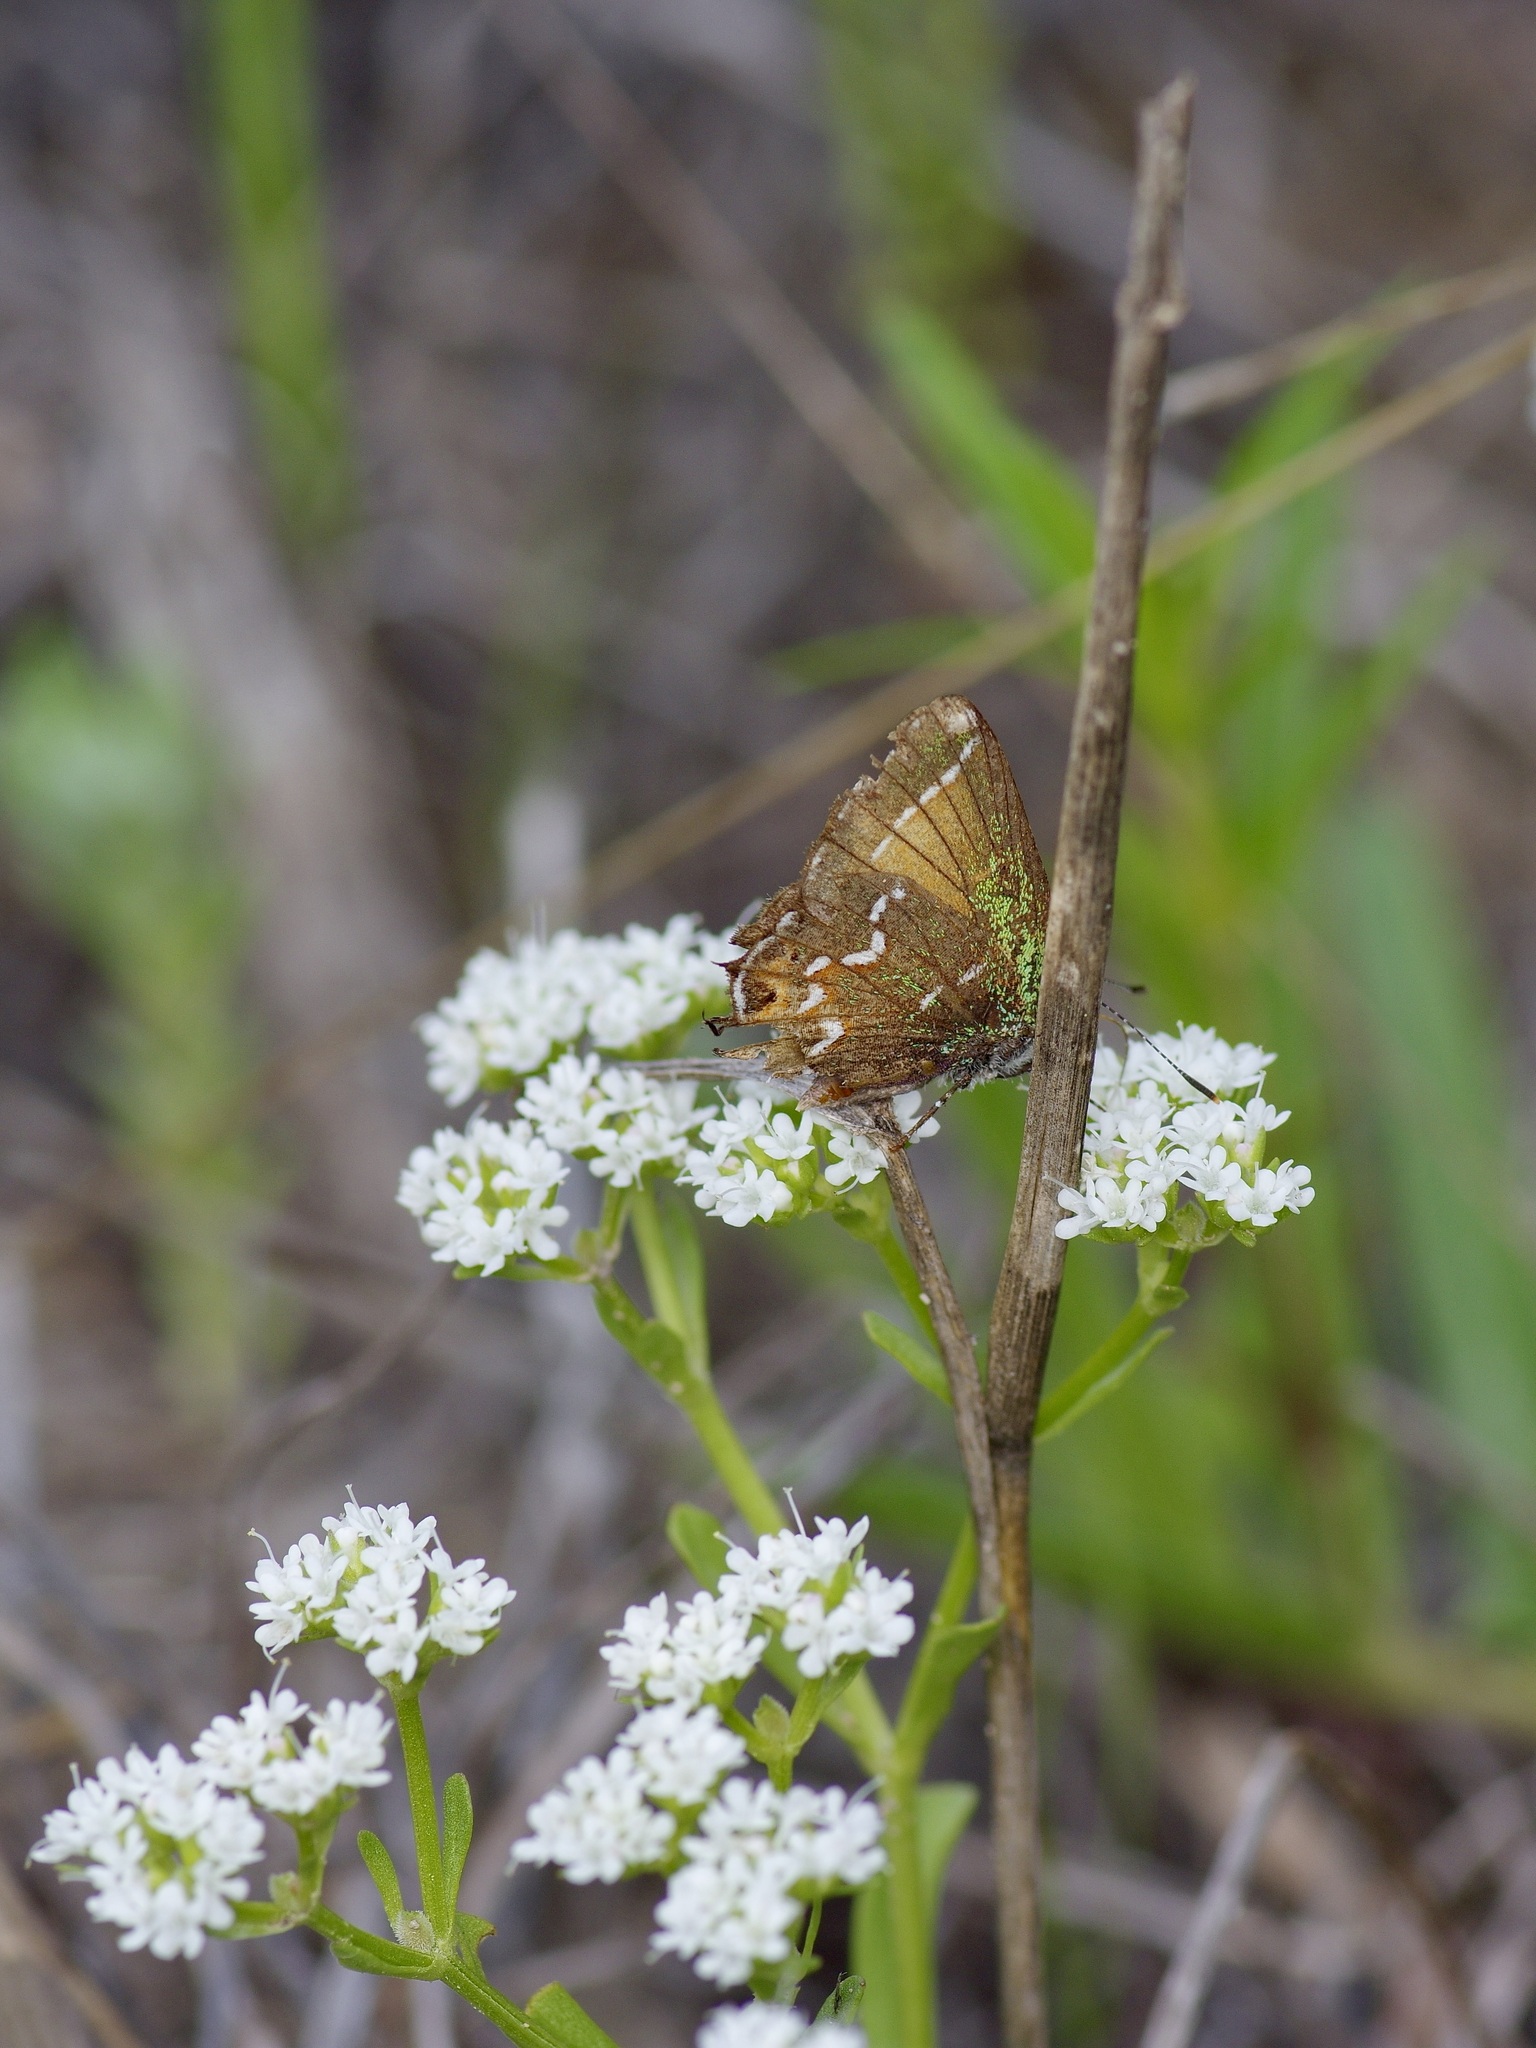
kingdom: Animalia
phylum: Arthropoda
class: Insecta
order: Lepidoptera
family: Lycaenidae
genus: Mitoura
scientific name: Mitoura gryneus
